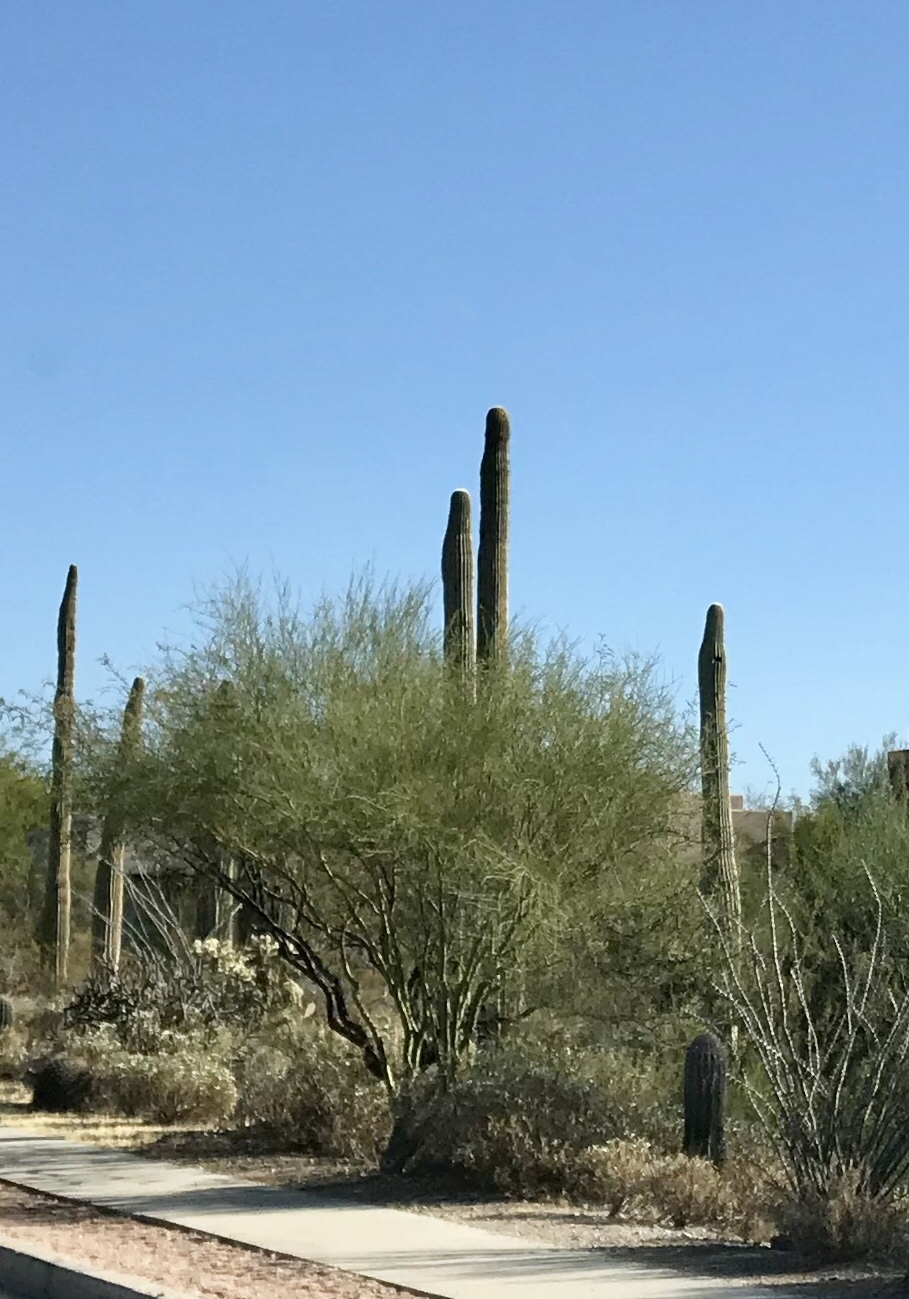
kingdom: Plantae
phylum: Tracheophyta
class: Magnoliopsida
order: Caryophyllales
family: Cactaceae
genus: Carnegiea
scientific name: Carnegiea gigantea
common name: Saguaro
